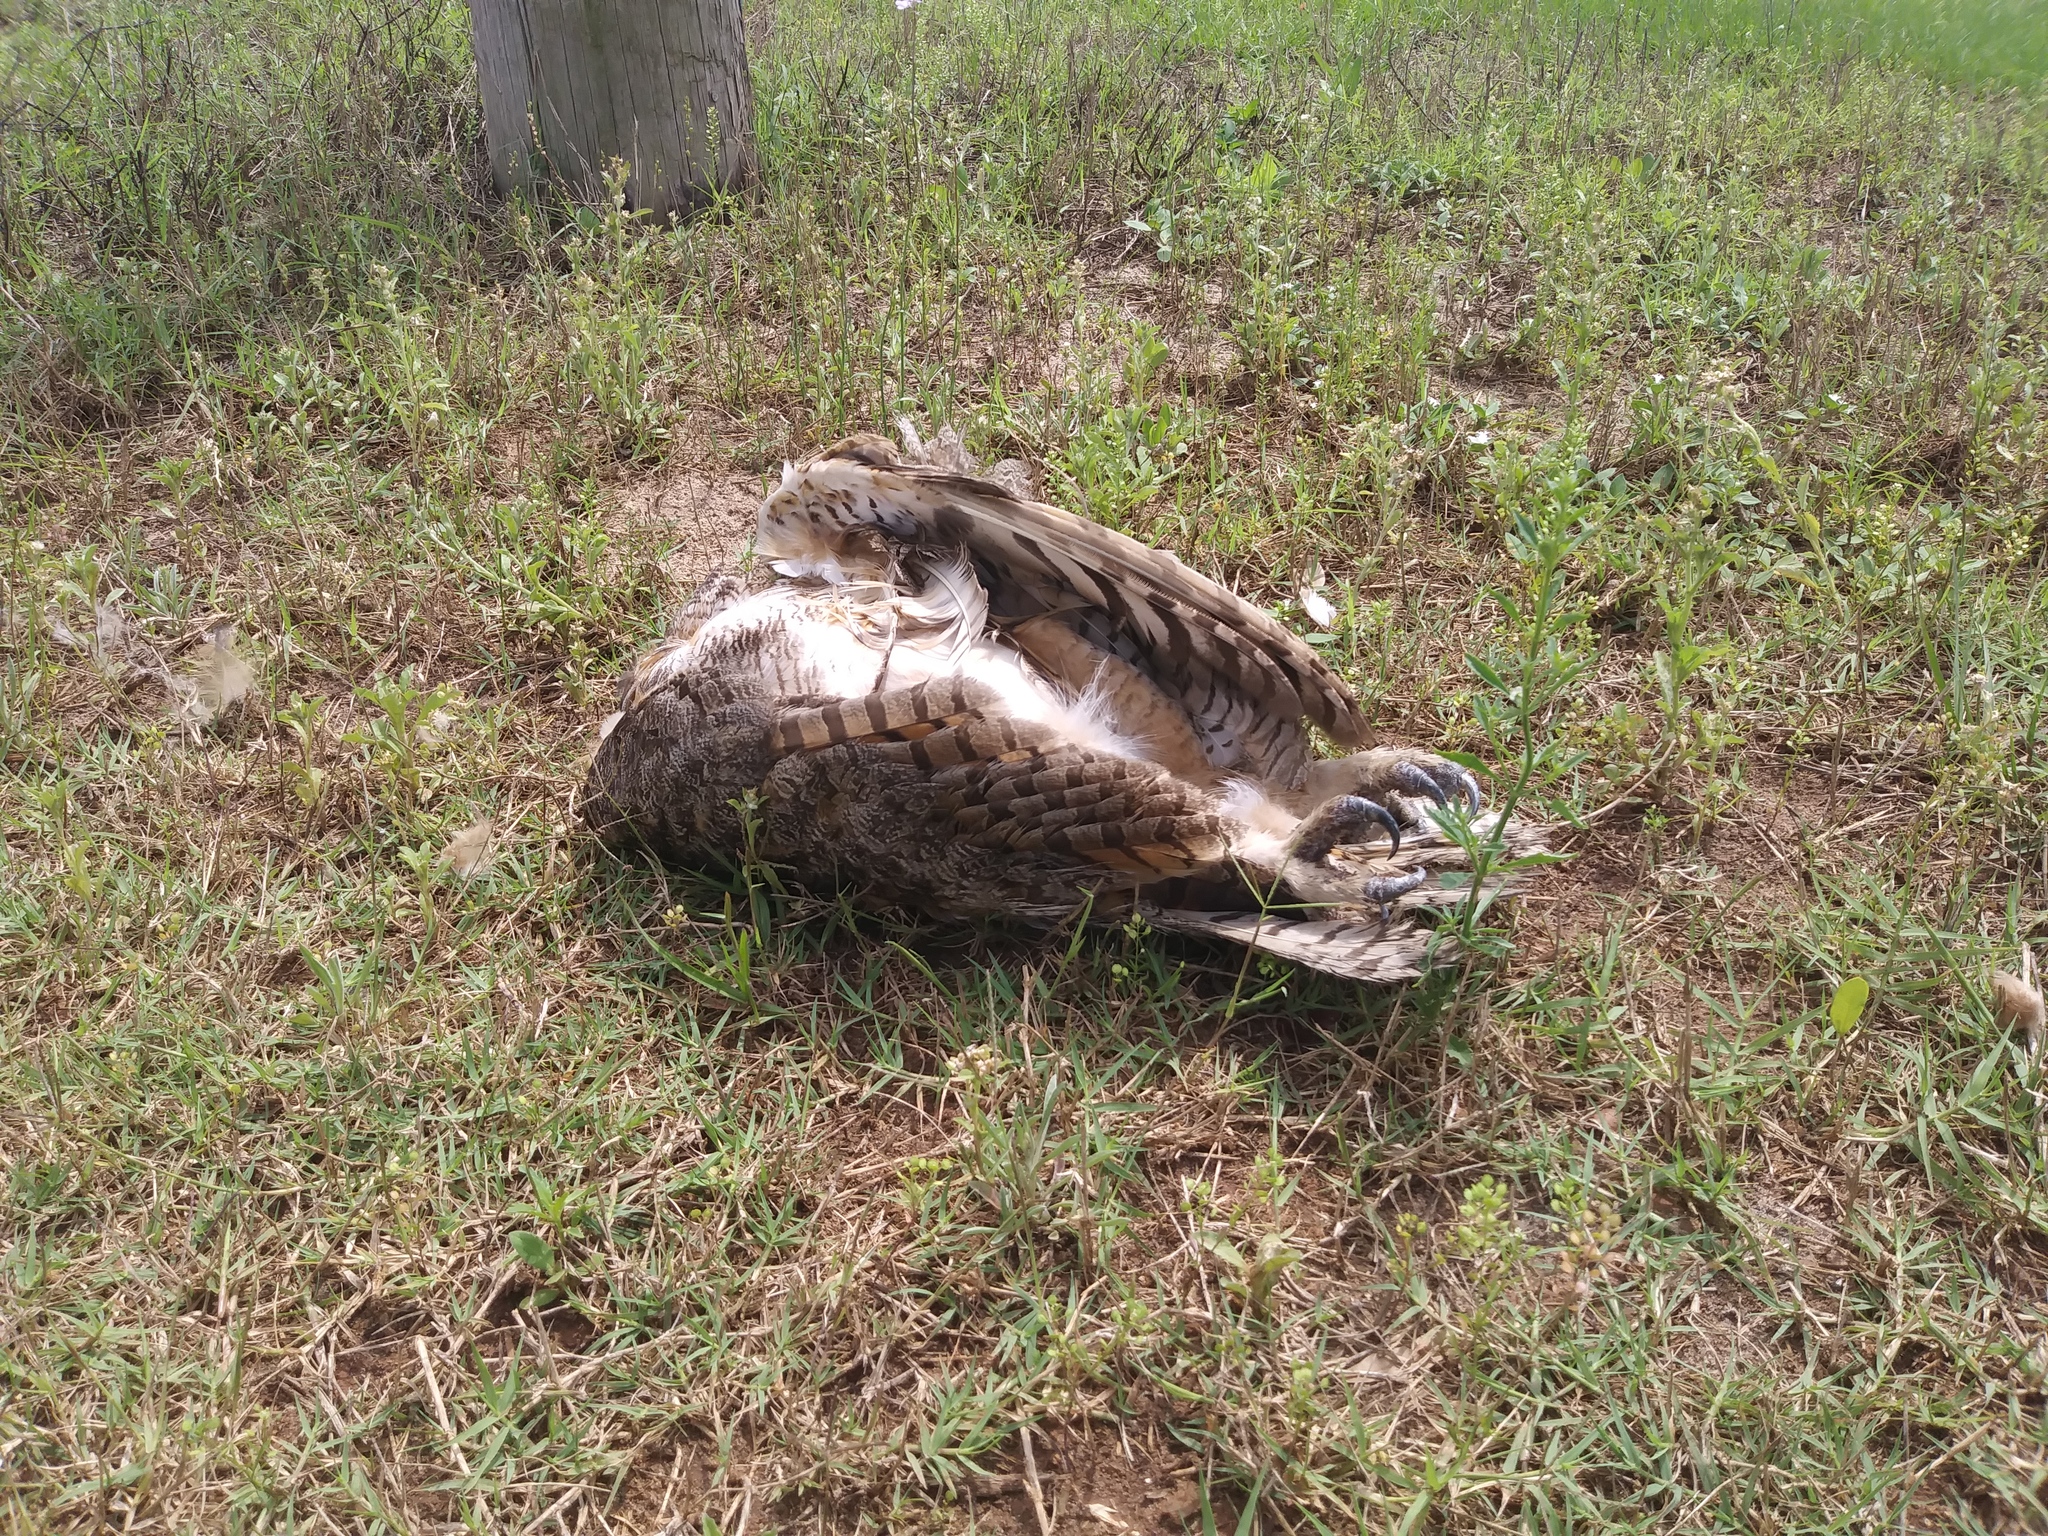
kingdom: Animalia
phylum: Chordata
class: Aves
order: Strigiformes
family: Strigidae
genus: Bubo
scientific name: Bubo virginianus
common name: Great horned owl
